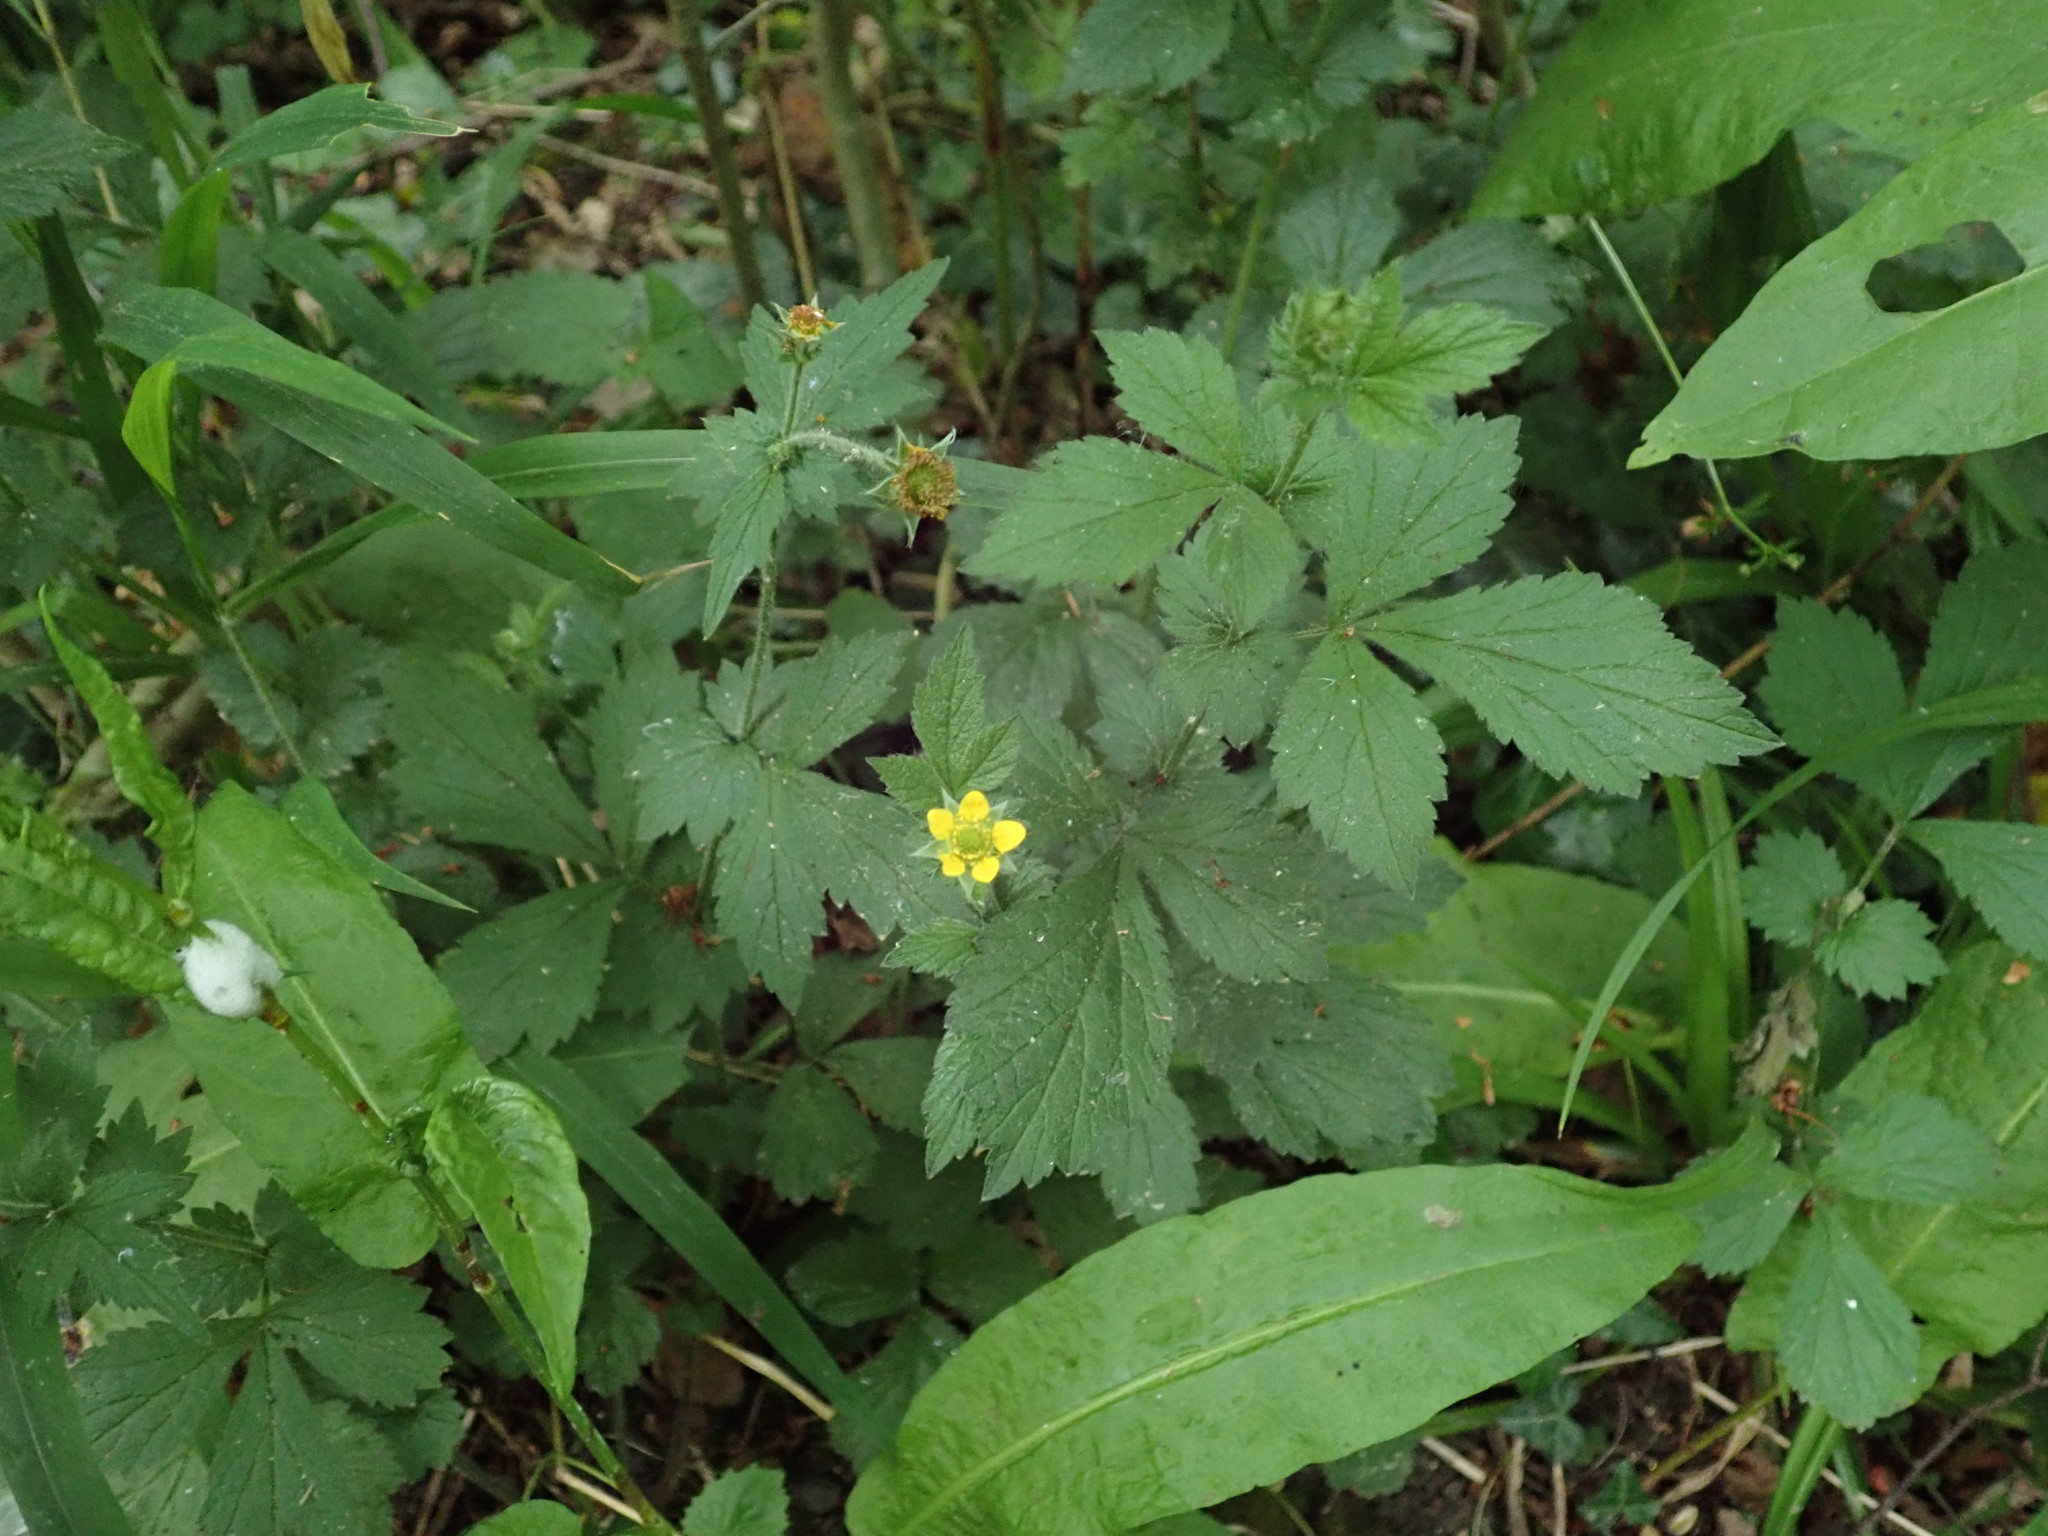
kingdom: Plantae
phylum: Tracheophyta
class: Magnoliopsida
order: Rosales
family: Rosaceae
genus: Geum
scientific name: Geum urbanum
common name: Wood avens
